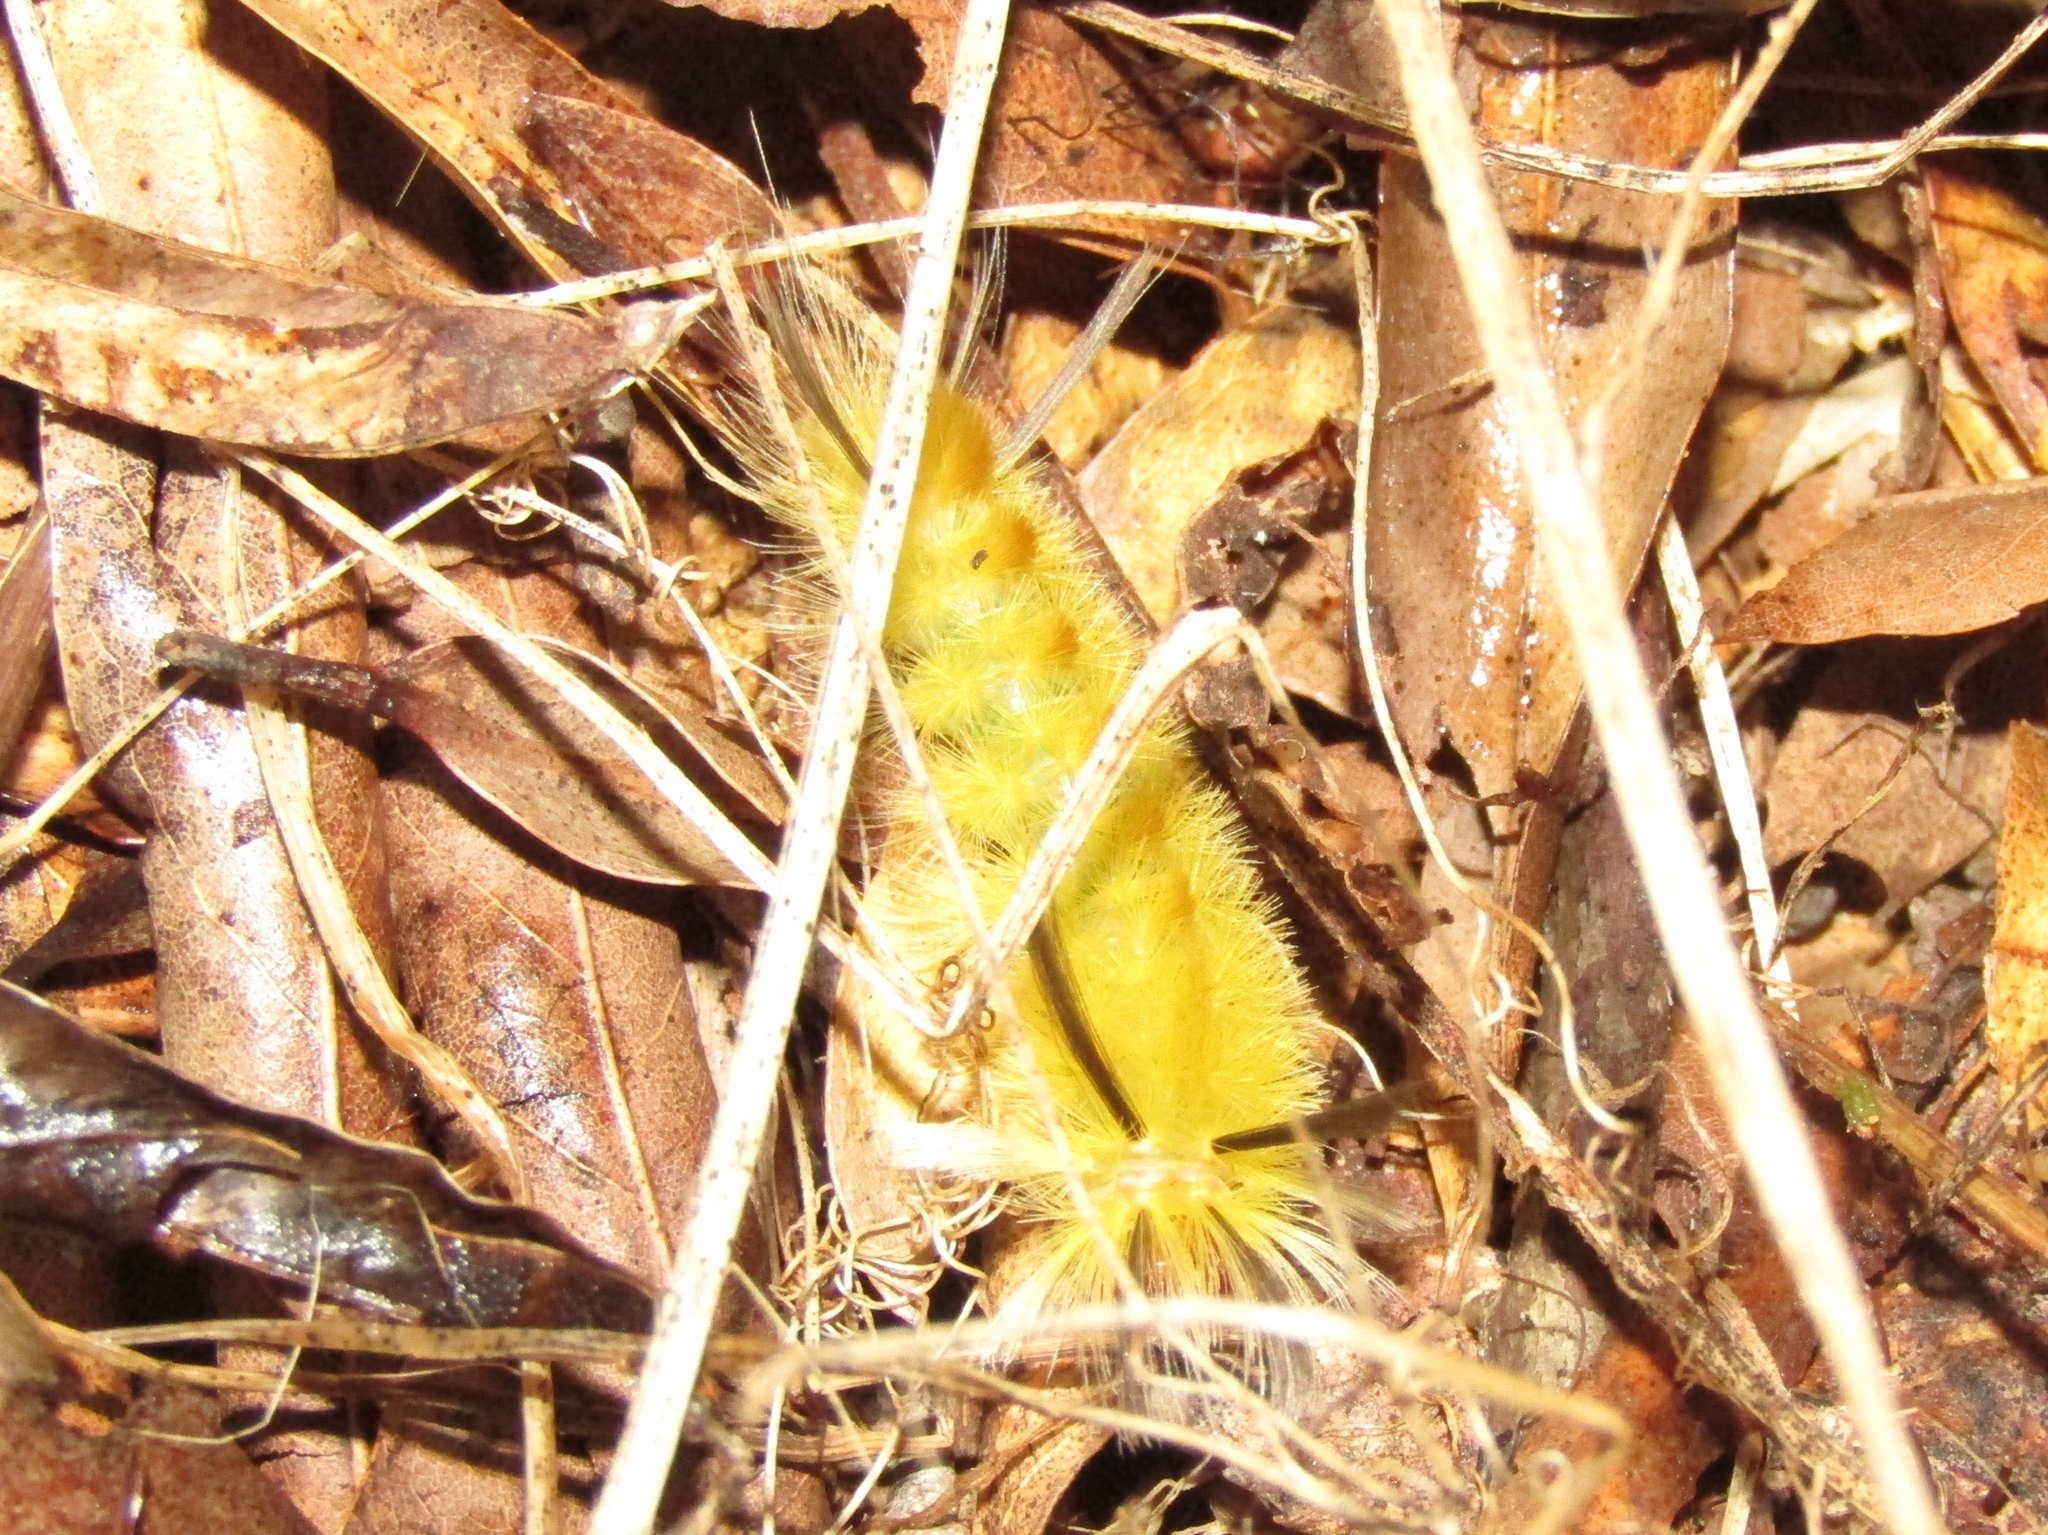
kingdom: Animalia
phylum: Arthropoda
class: Insecta
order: Lepidoptera
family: Erebidae
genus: Halysidota
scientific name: Halysidota tessellaris
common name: Banded tussock moth
